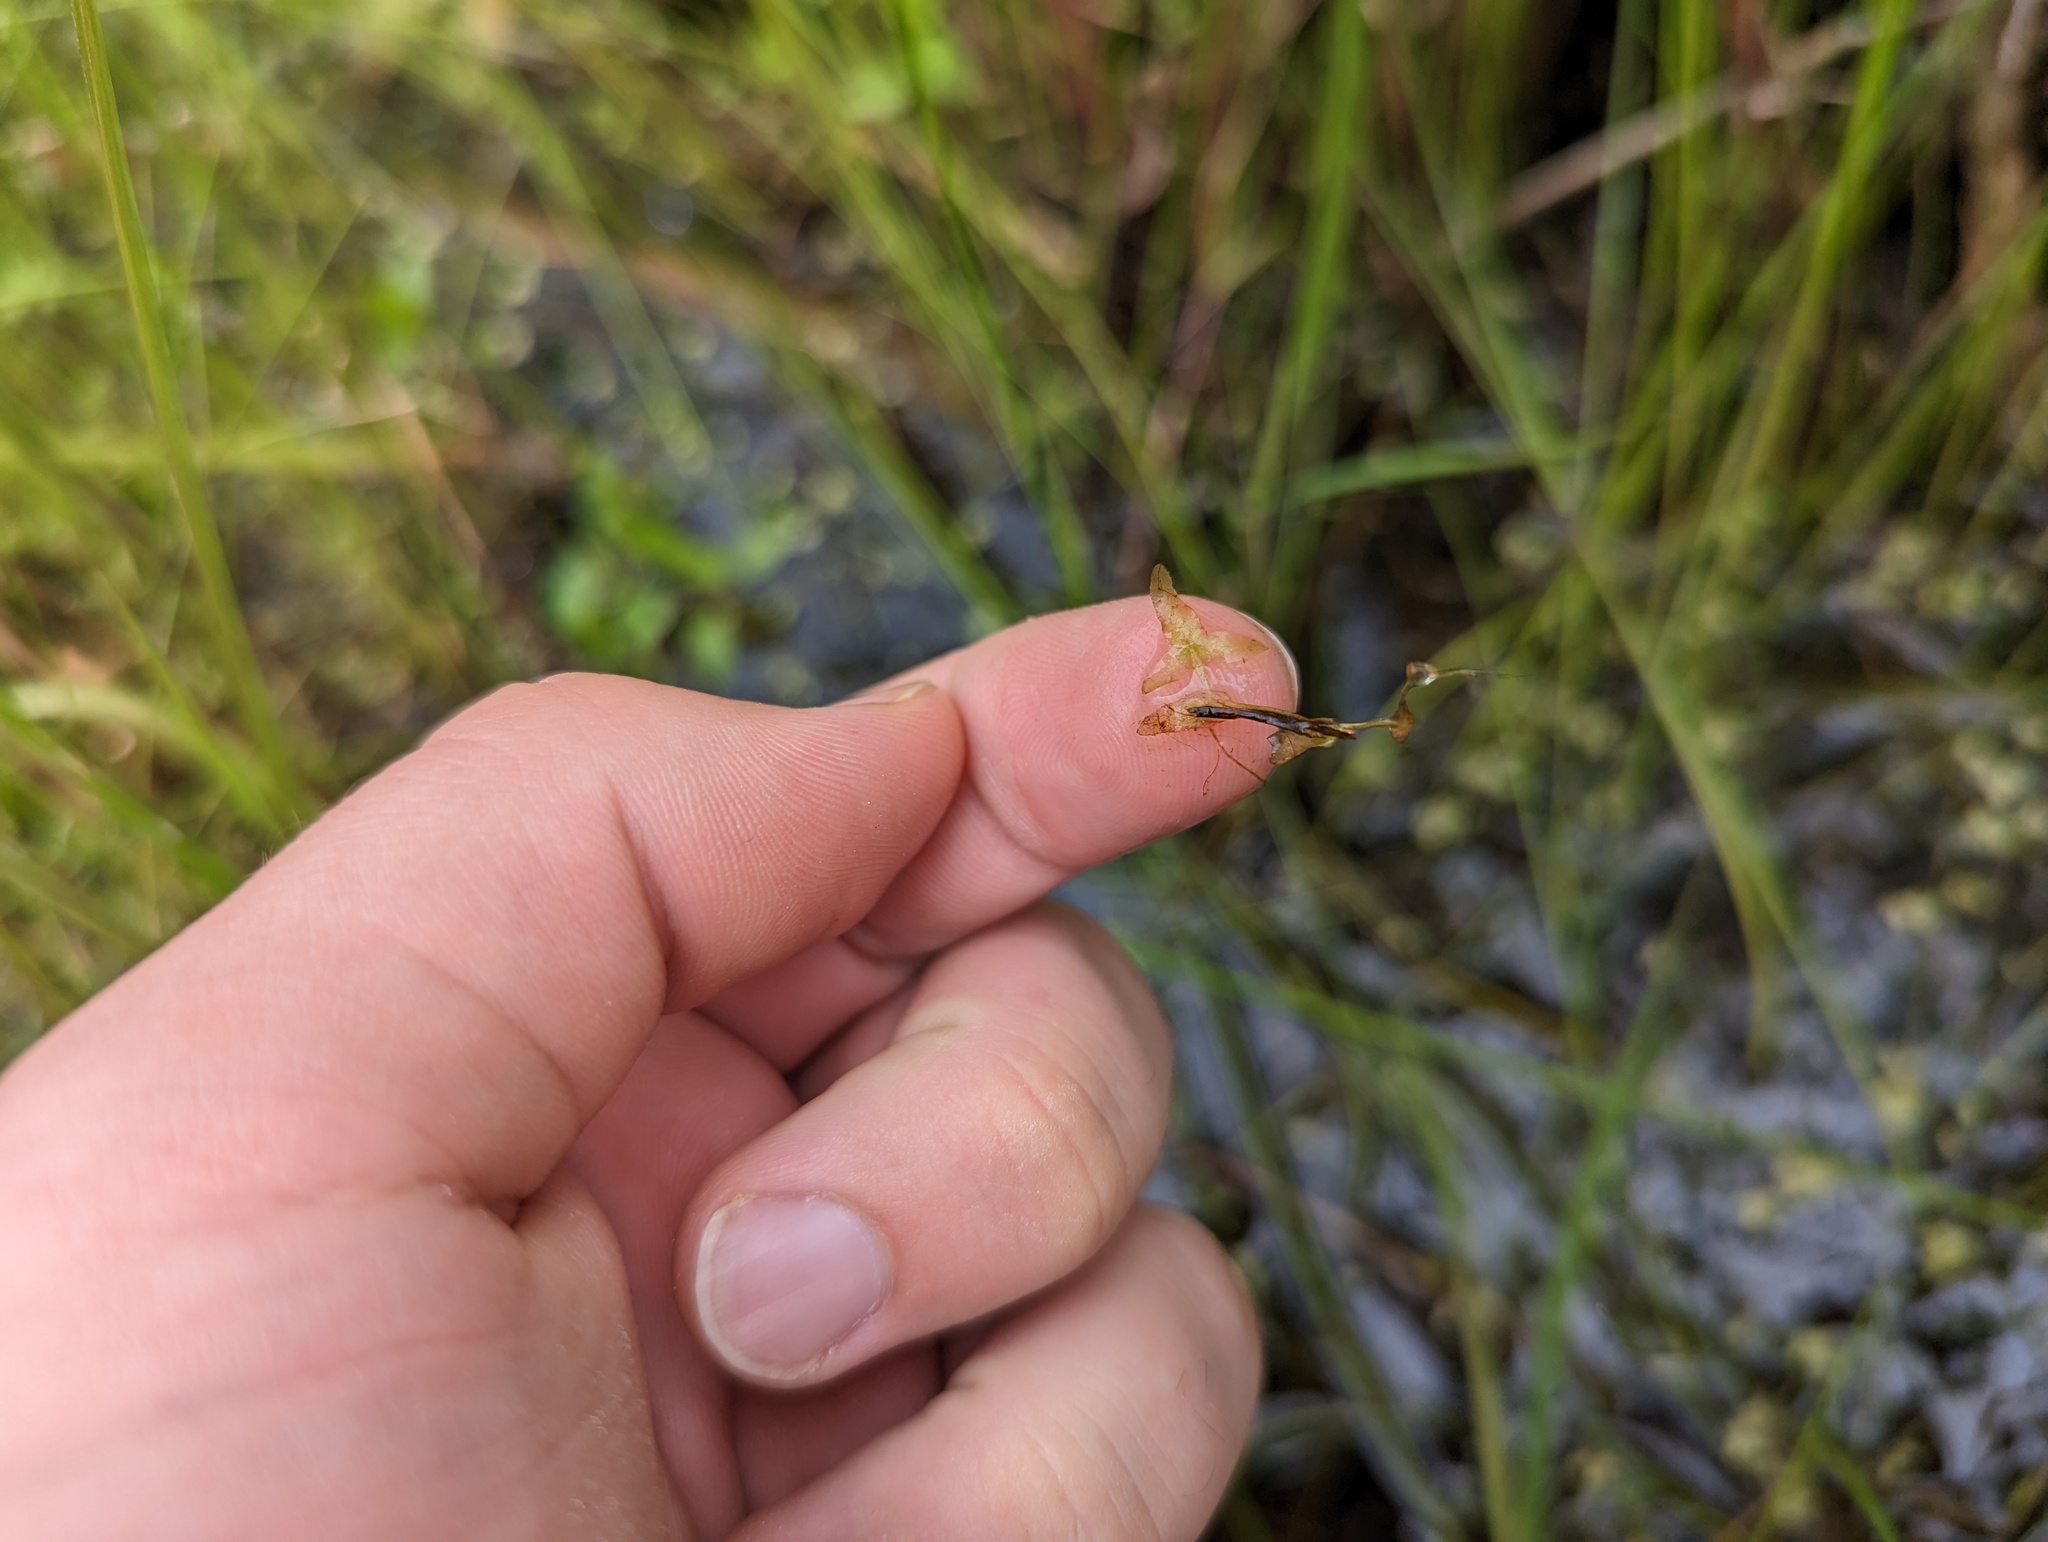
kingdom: Plantae
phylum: Tracheophyta
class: Liliopsida
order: Alismatales
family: Araceae
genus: Lemna
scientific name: Lemna trisulca
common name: Ivy-leaved duckweed
